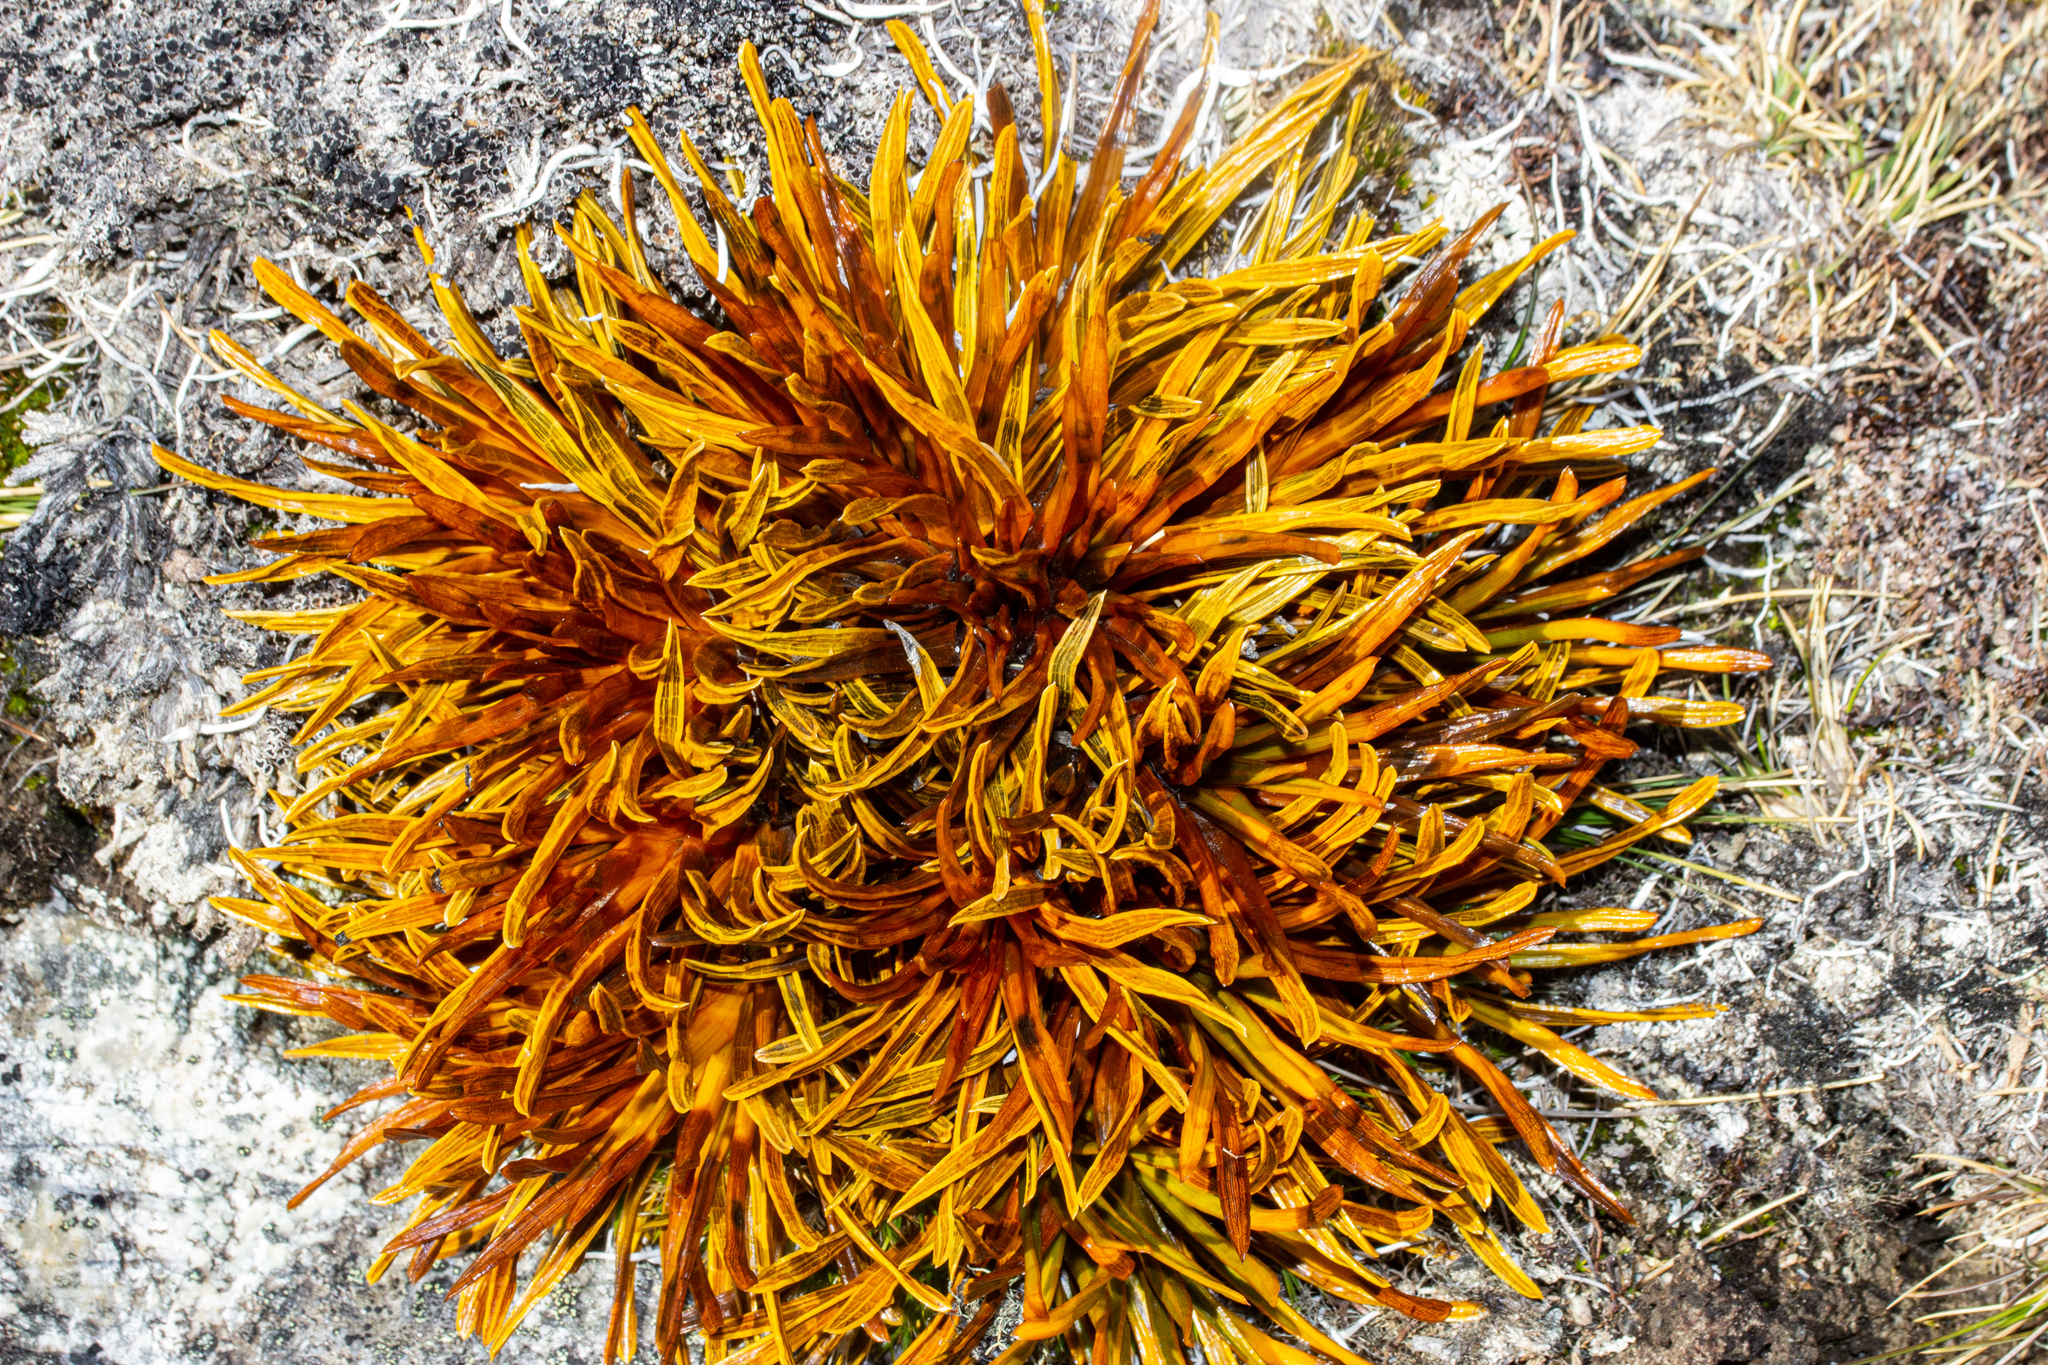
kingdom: Plantae
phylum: Tracheophyta
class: Magnoliopsida
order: Apiales
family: Apiaceae
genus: Aciphylla
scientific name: Aciphylla simplex
